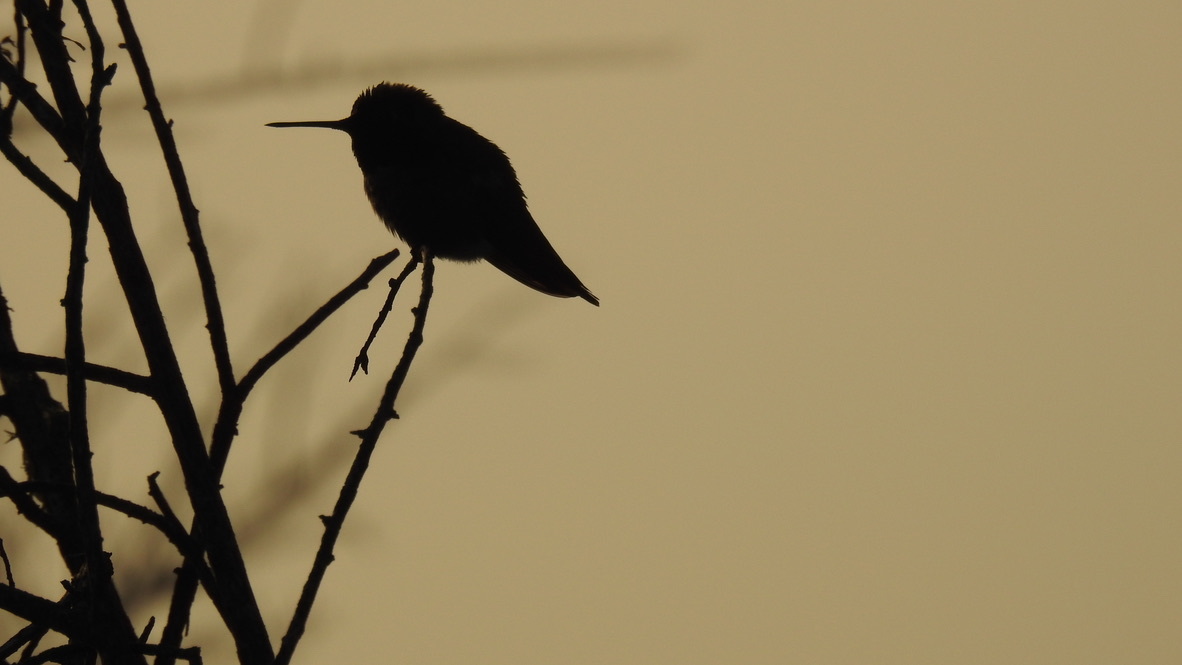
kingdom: Animalia
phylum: Chordata
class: Aves
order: Apodiformes
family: Trochilidae
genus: Calypte
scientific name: Calypte anna
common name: Anna's hummingbird
